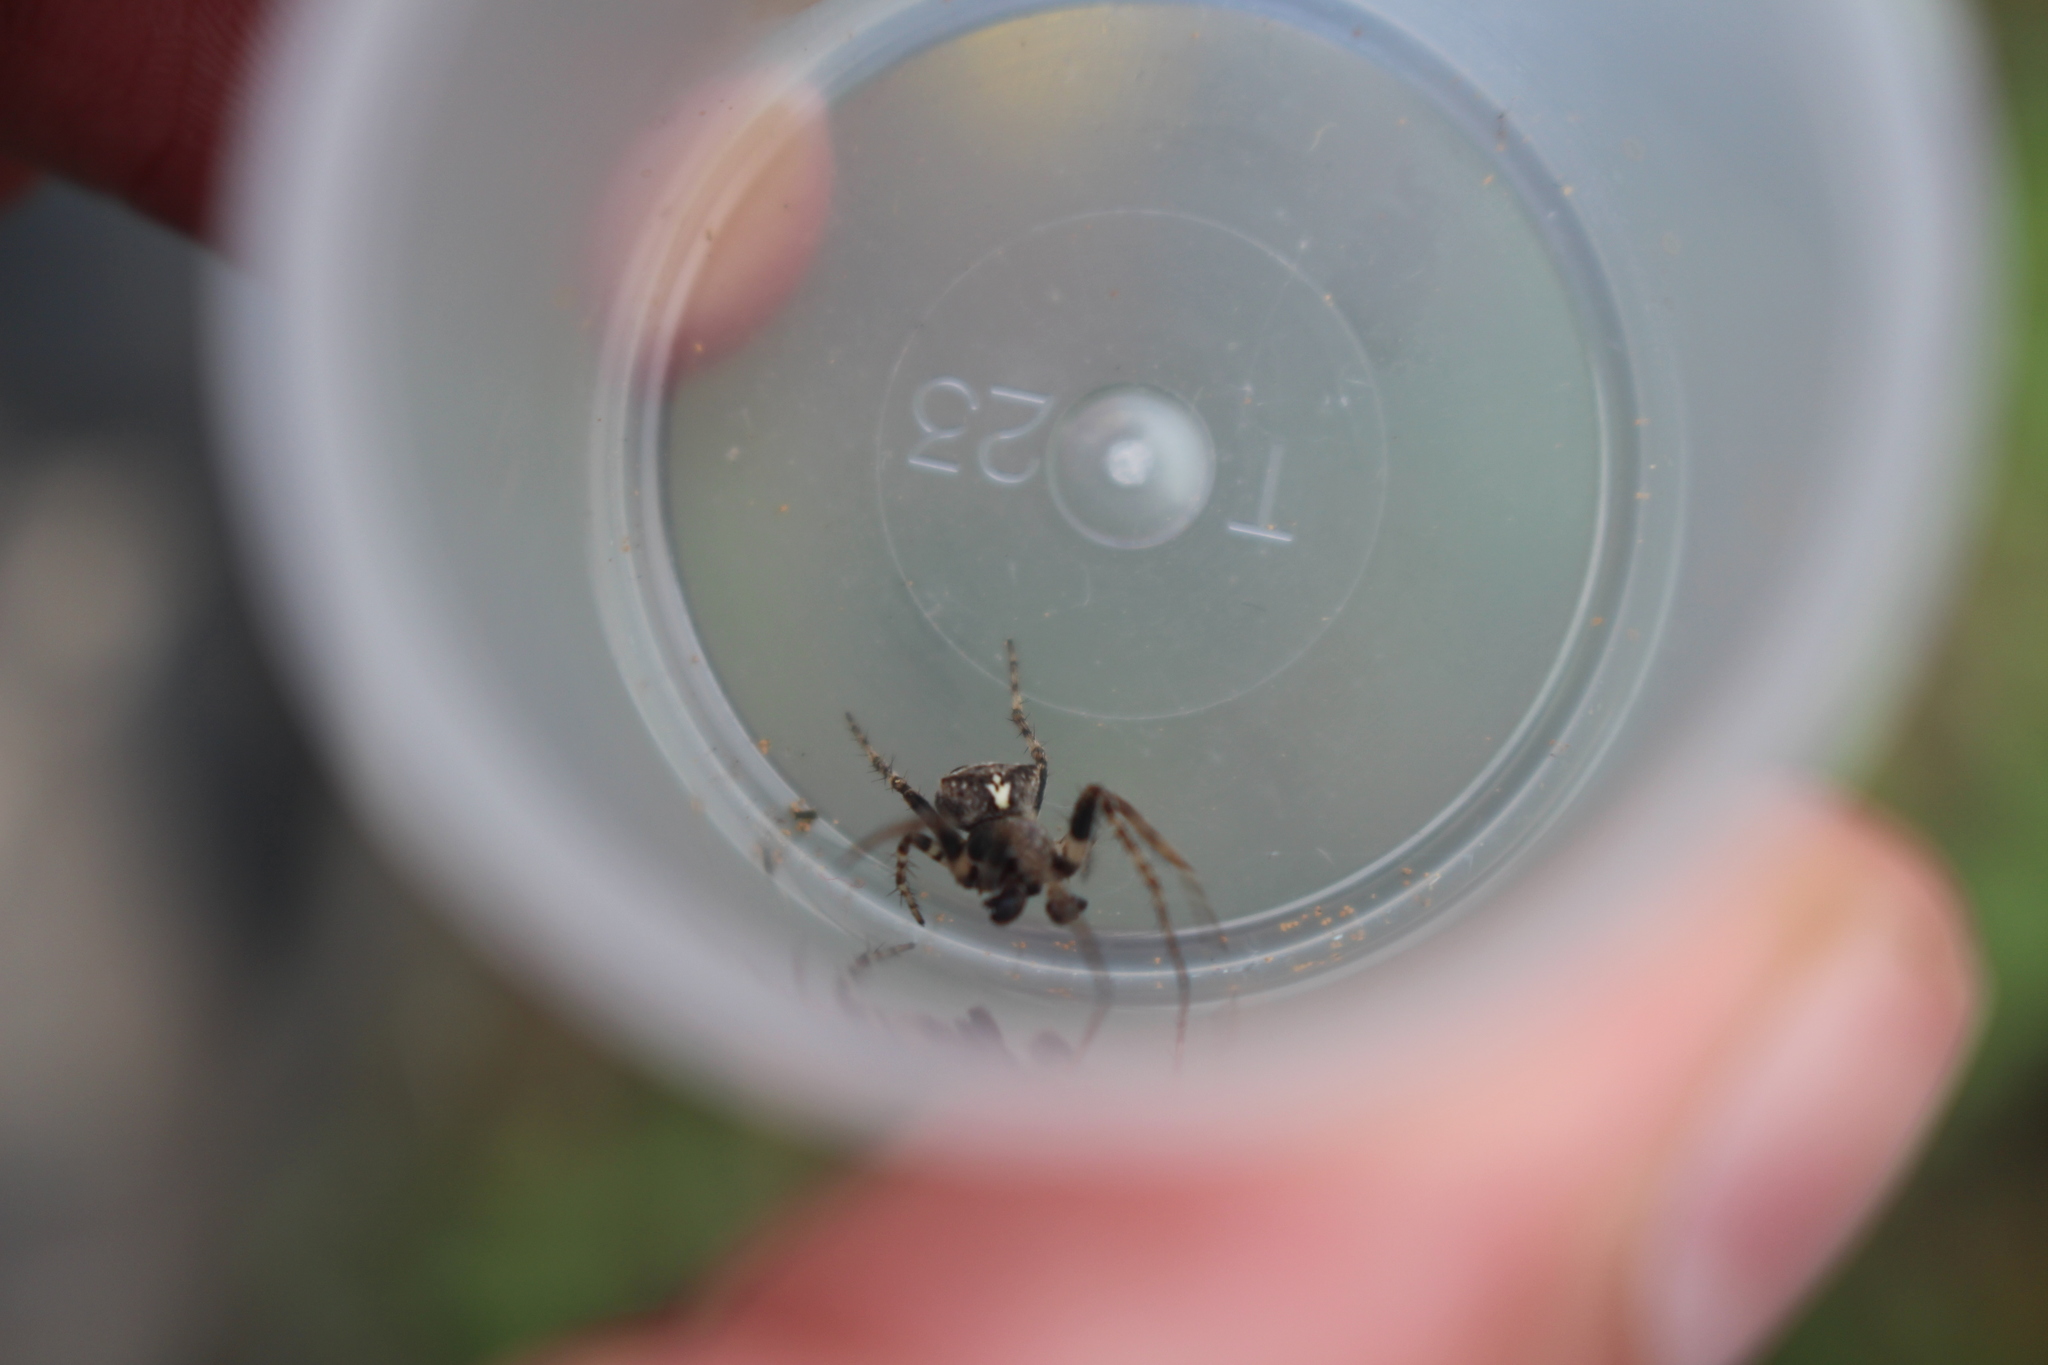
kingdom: Animalia
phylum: Arthropoda
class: Arachnida
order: Araneae
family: Araneidae
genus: Gibbaranea
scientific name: Gibbaranea bituberculata
